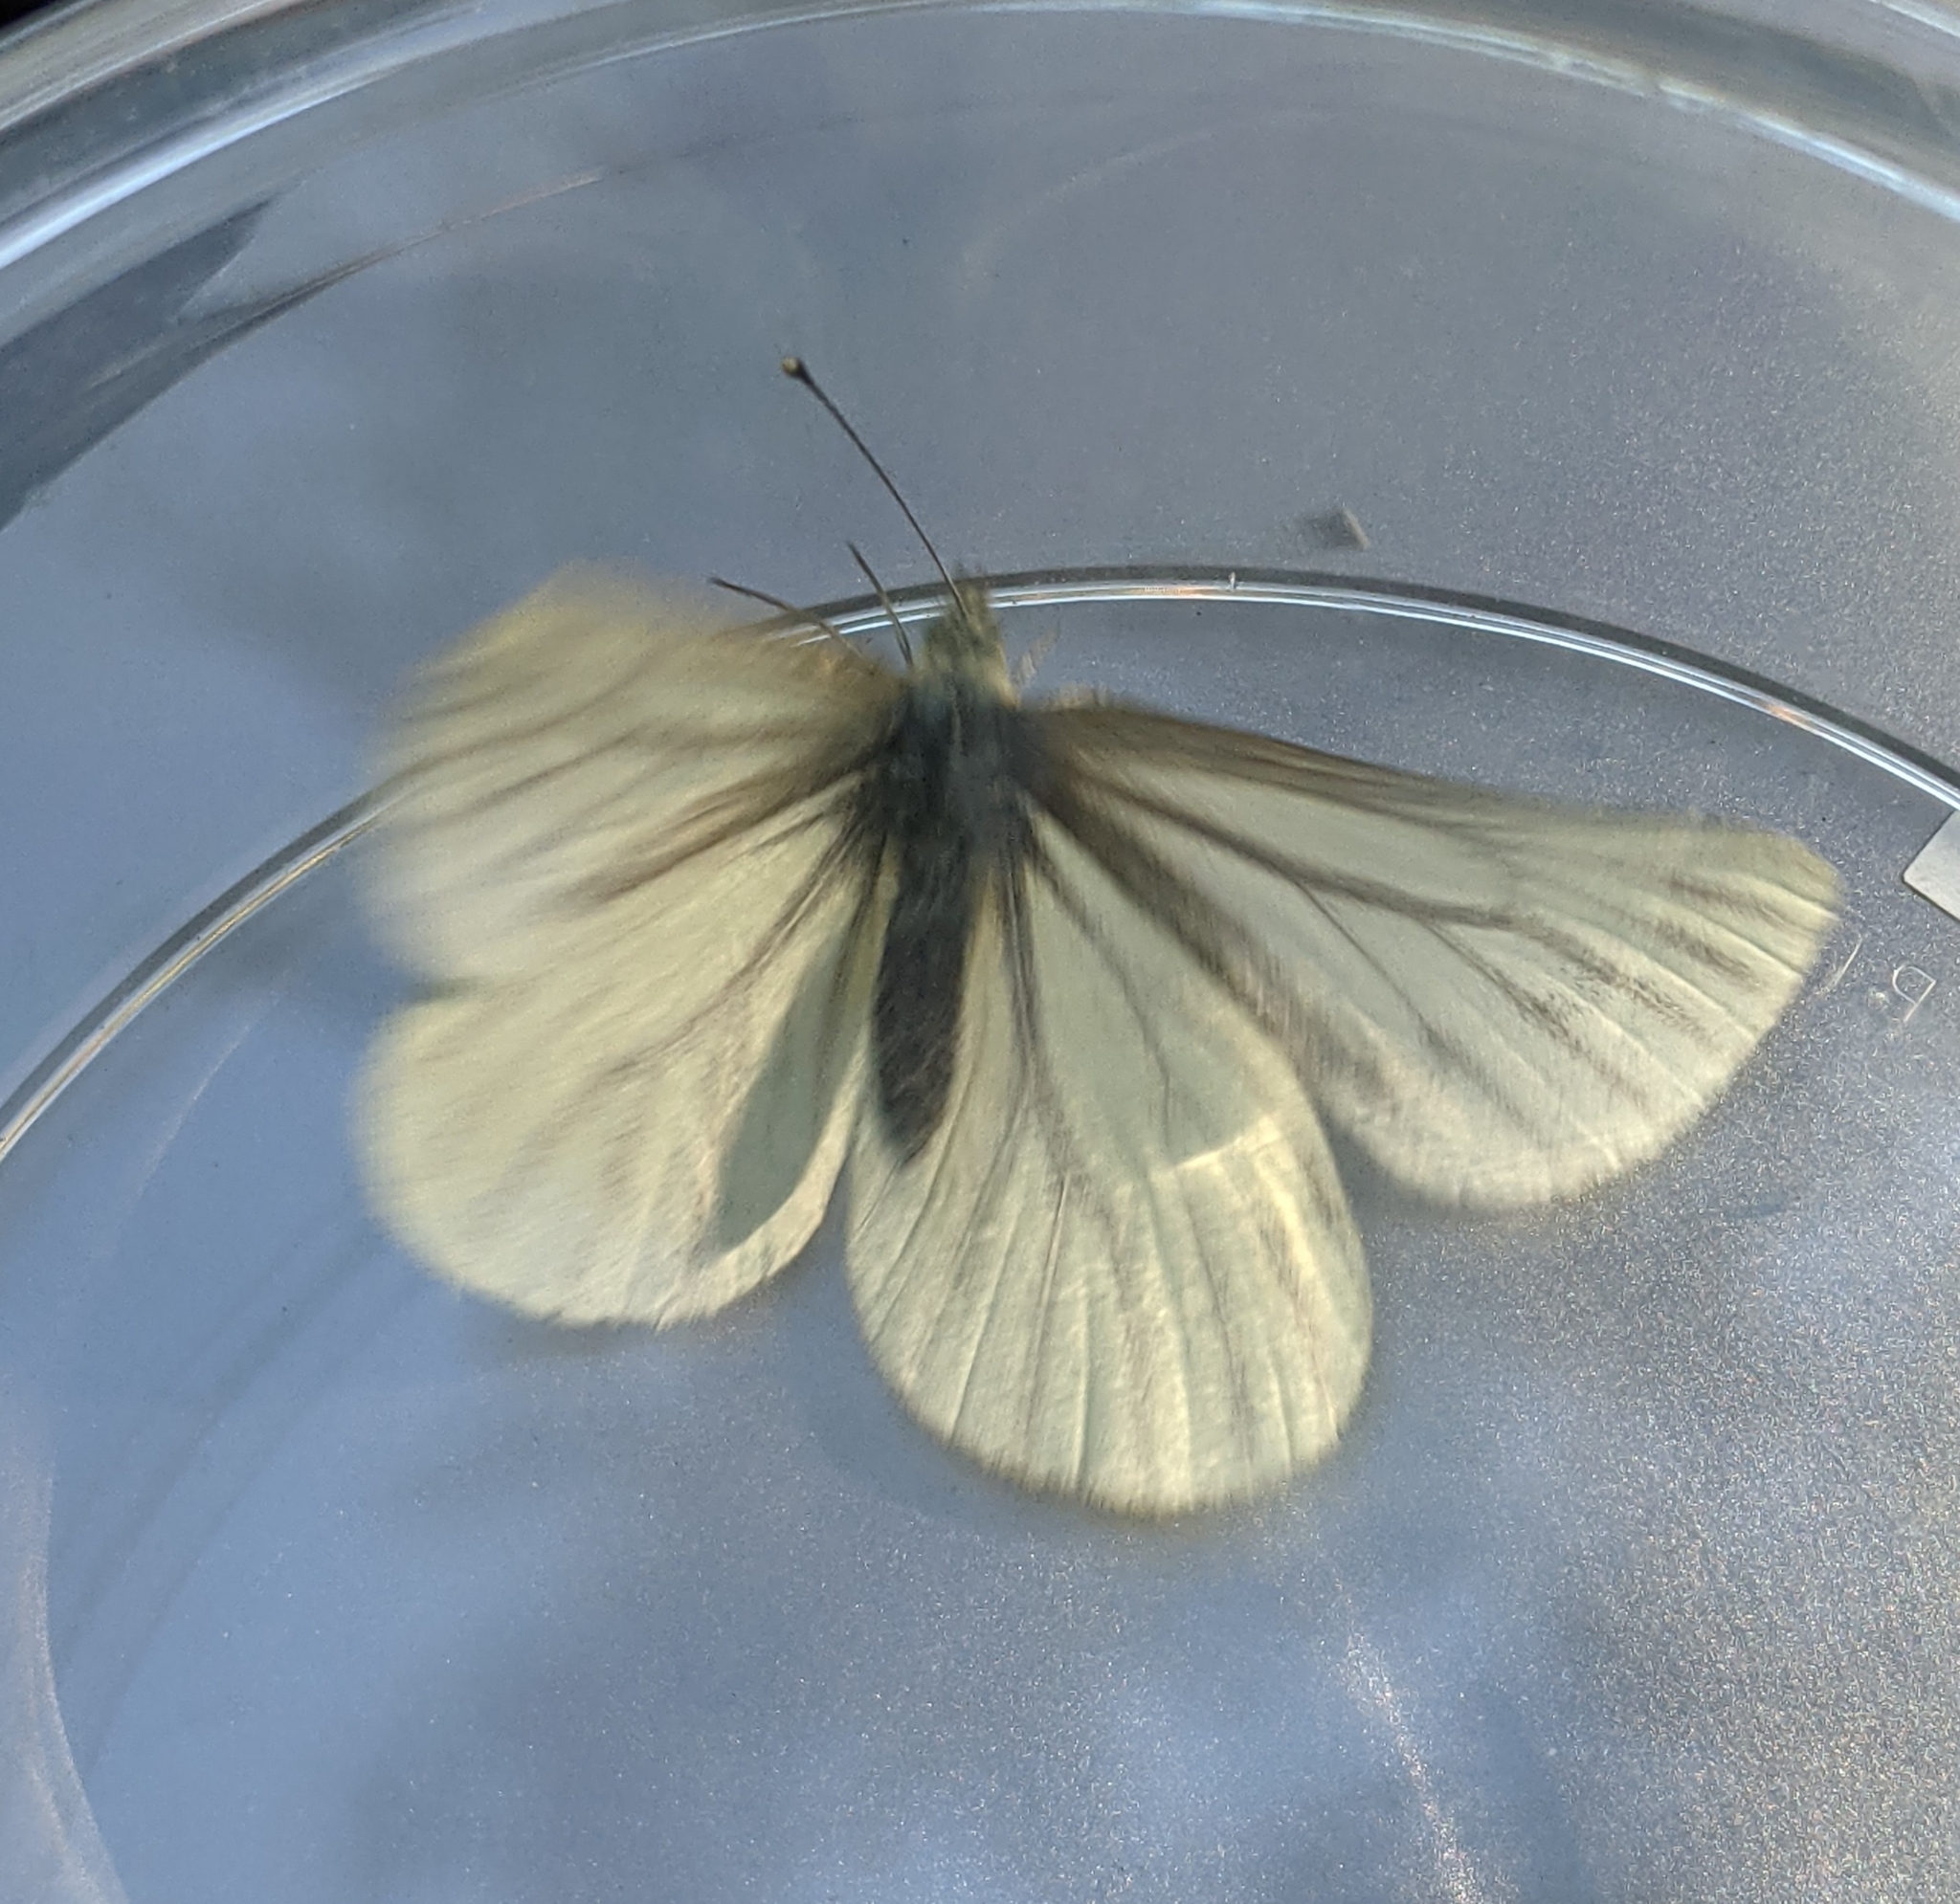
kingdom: Animalia
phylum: Arthropoda
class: Insecta
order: Lepidoptera
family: Pieridae
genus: Pieris
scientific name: Pieris marginalis
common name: Margined white
